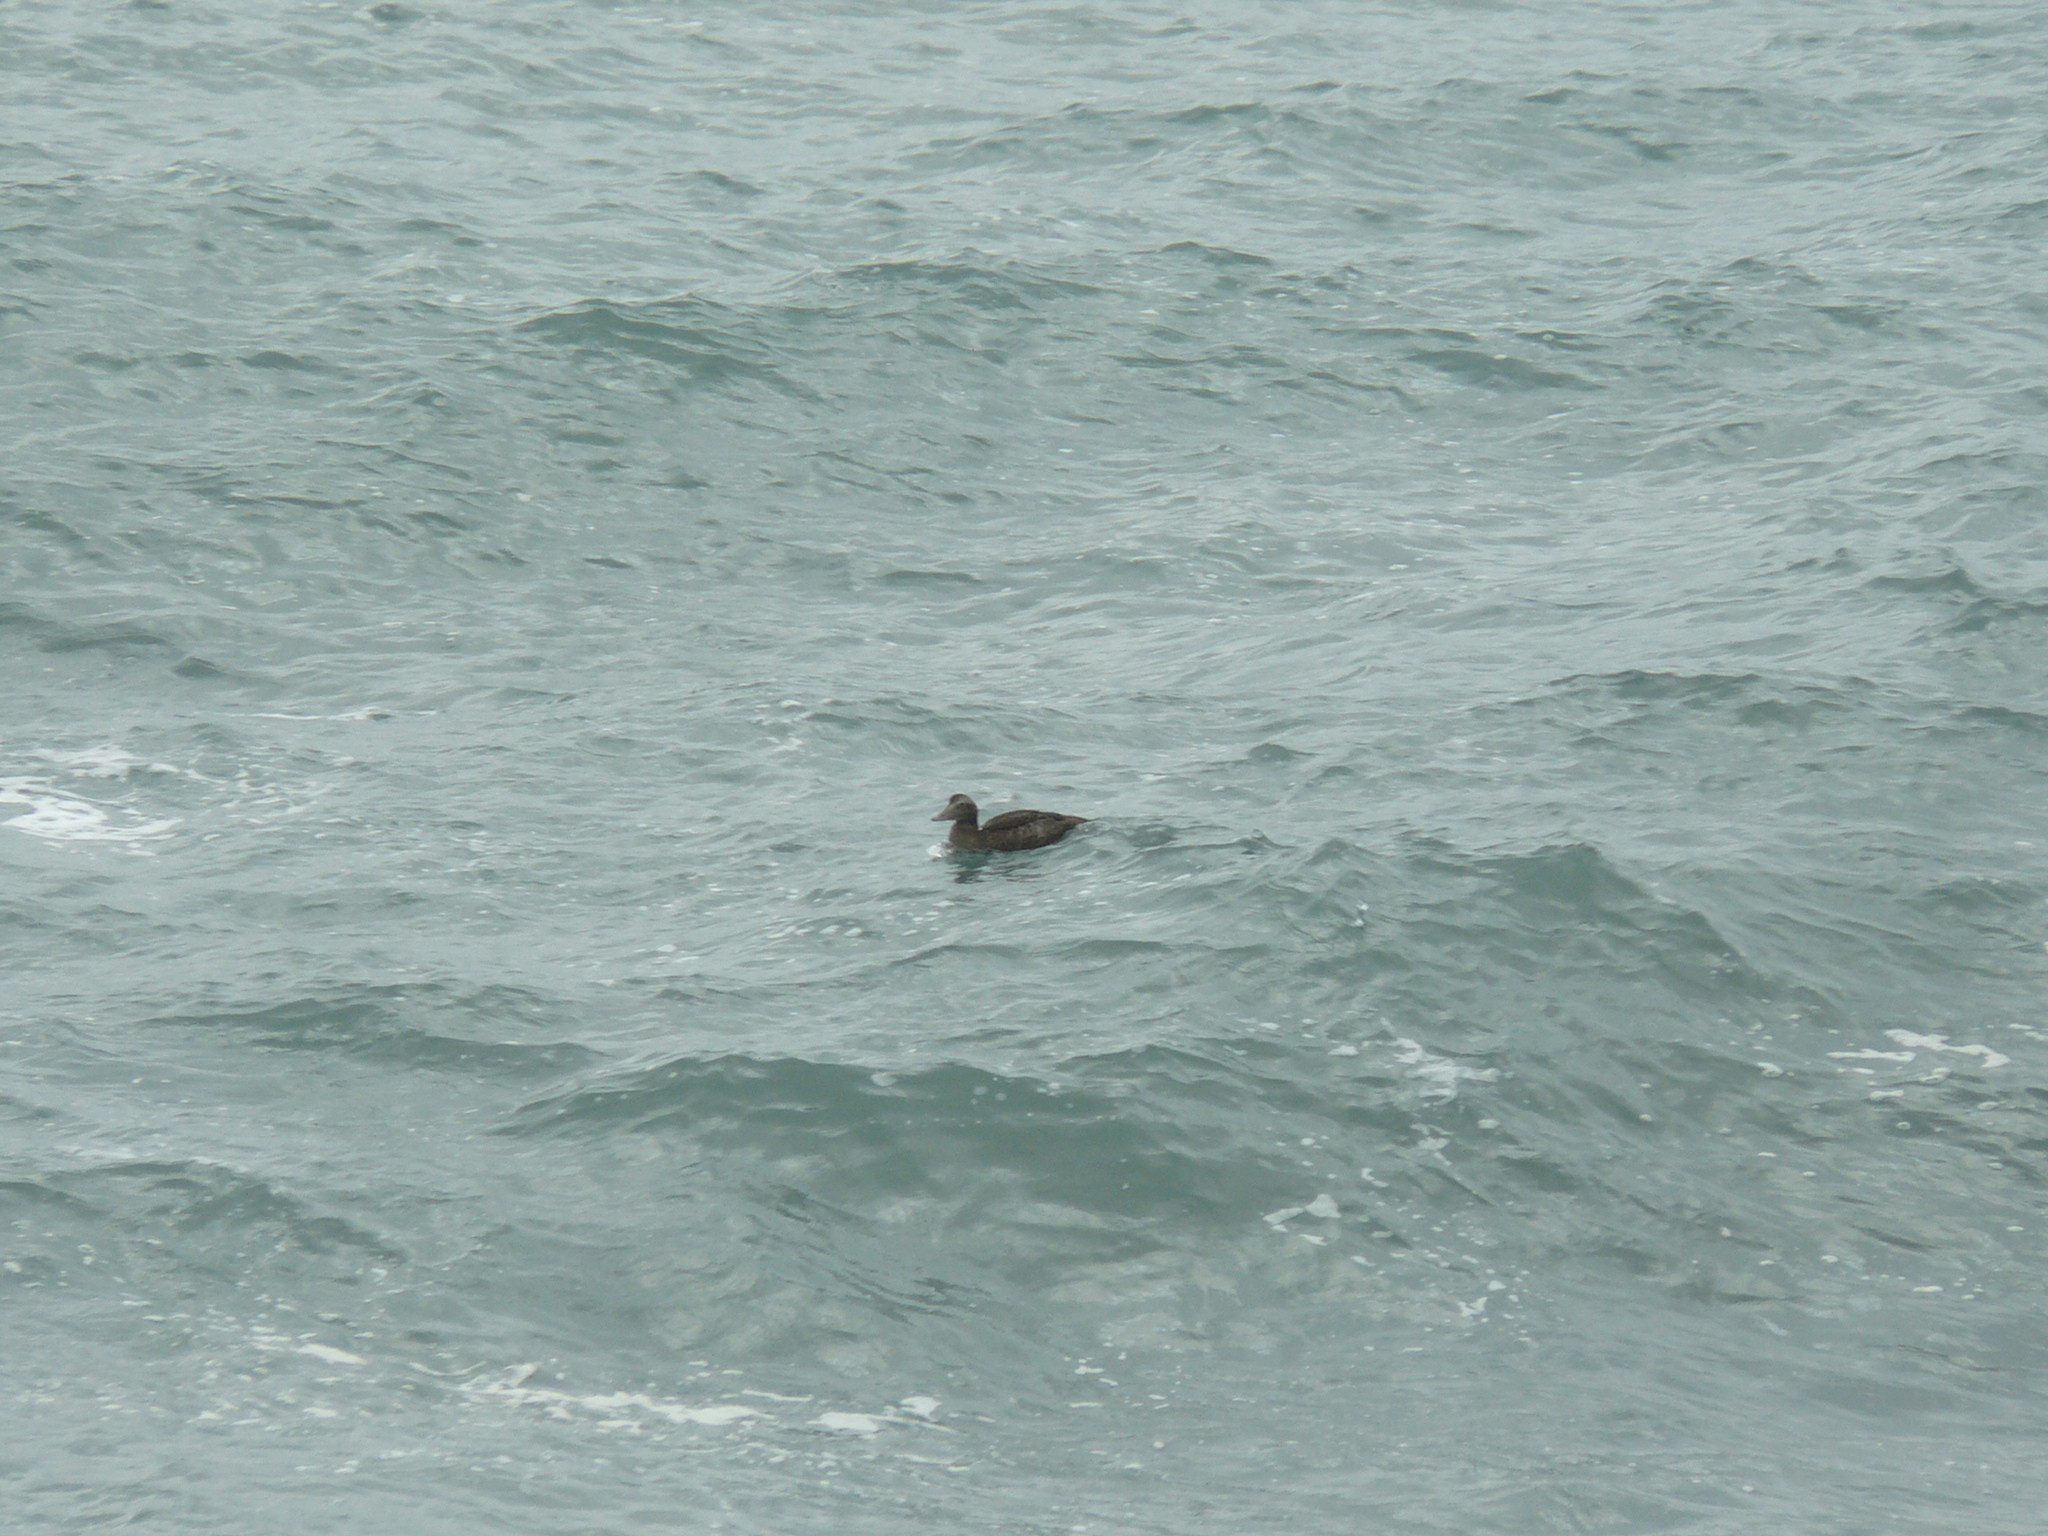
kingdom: Animalia
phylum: Chordata
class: Aves
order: Anseriformes
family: Anatidae
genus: Somateria
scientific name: Somateria mollissima
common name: Common eider
